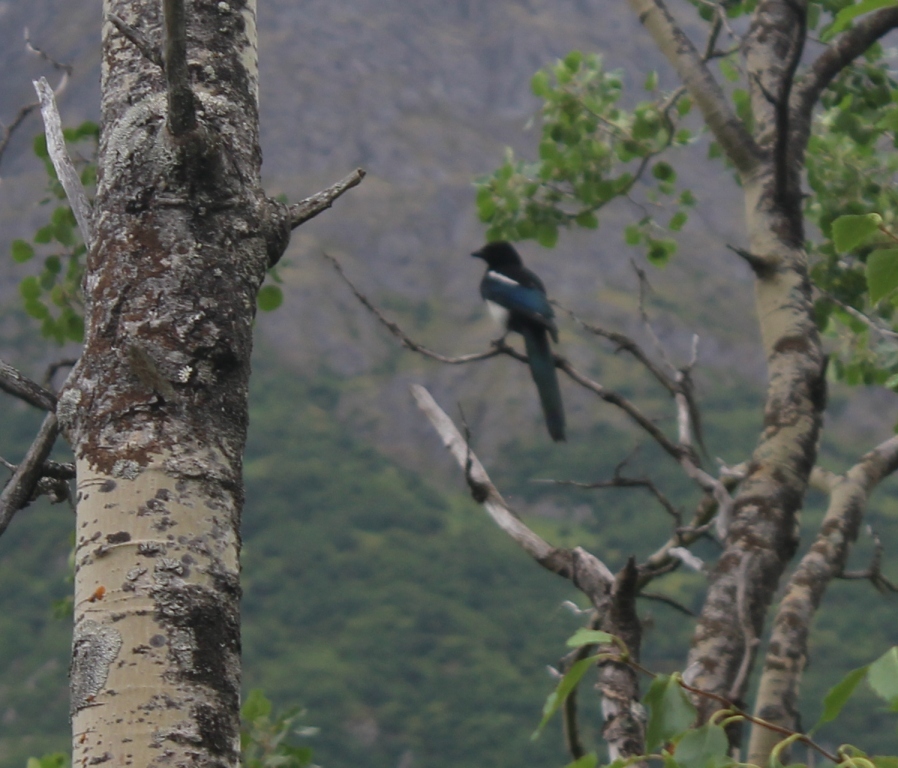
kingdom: Animalia
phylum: Chordata
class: Aves
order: Passeriformes
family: Corvidae
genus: Pica
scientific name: Pica hudsonia
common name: Black-billed magpie
